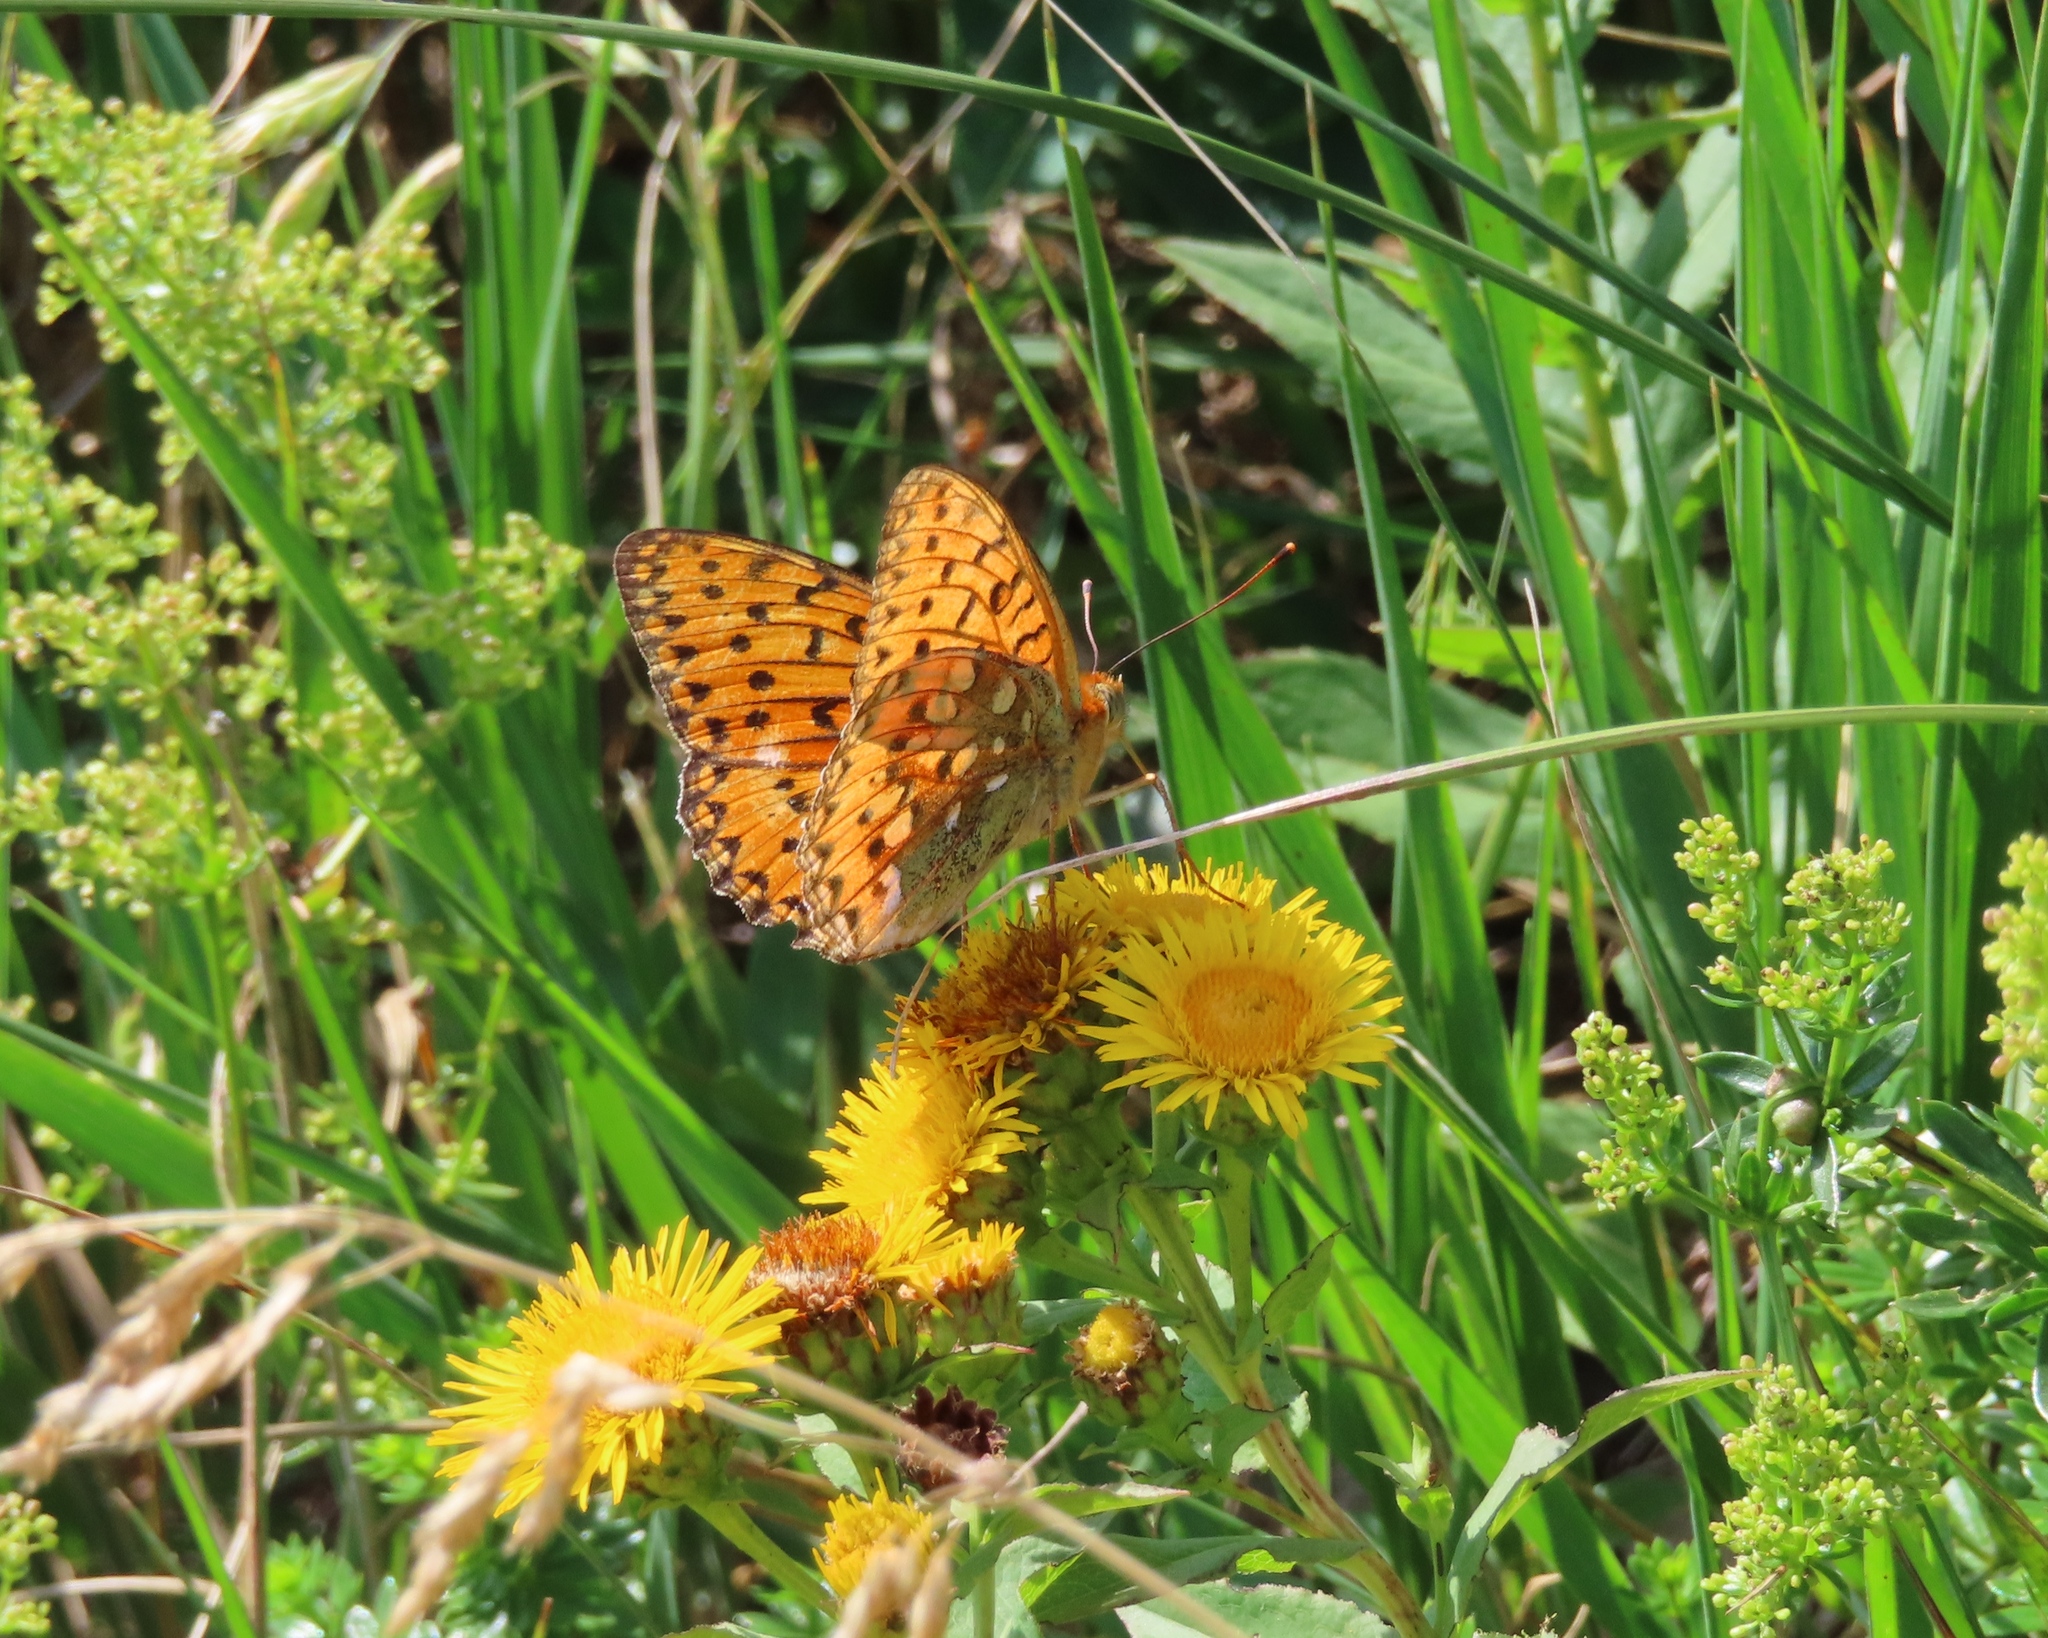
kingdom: Animalia
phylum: Arthropoda
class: Insecta
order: Lepidoptera
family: Nymphalidae
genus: Speyeria
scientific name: Speyeria aglaja
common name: Dark green fritillary
